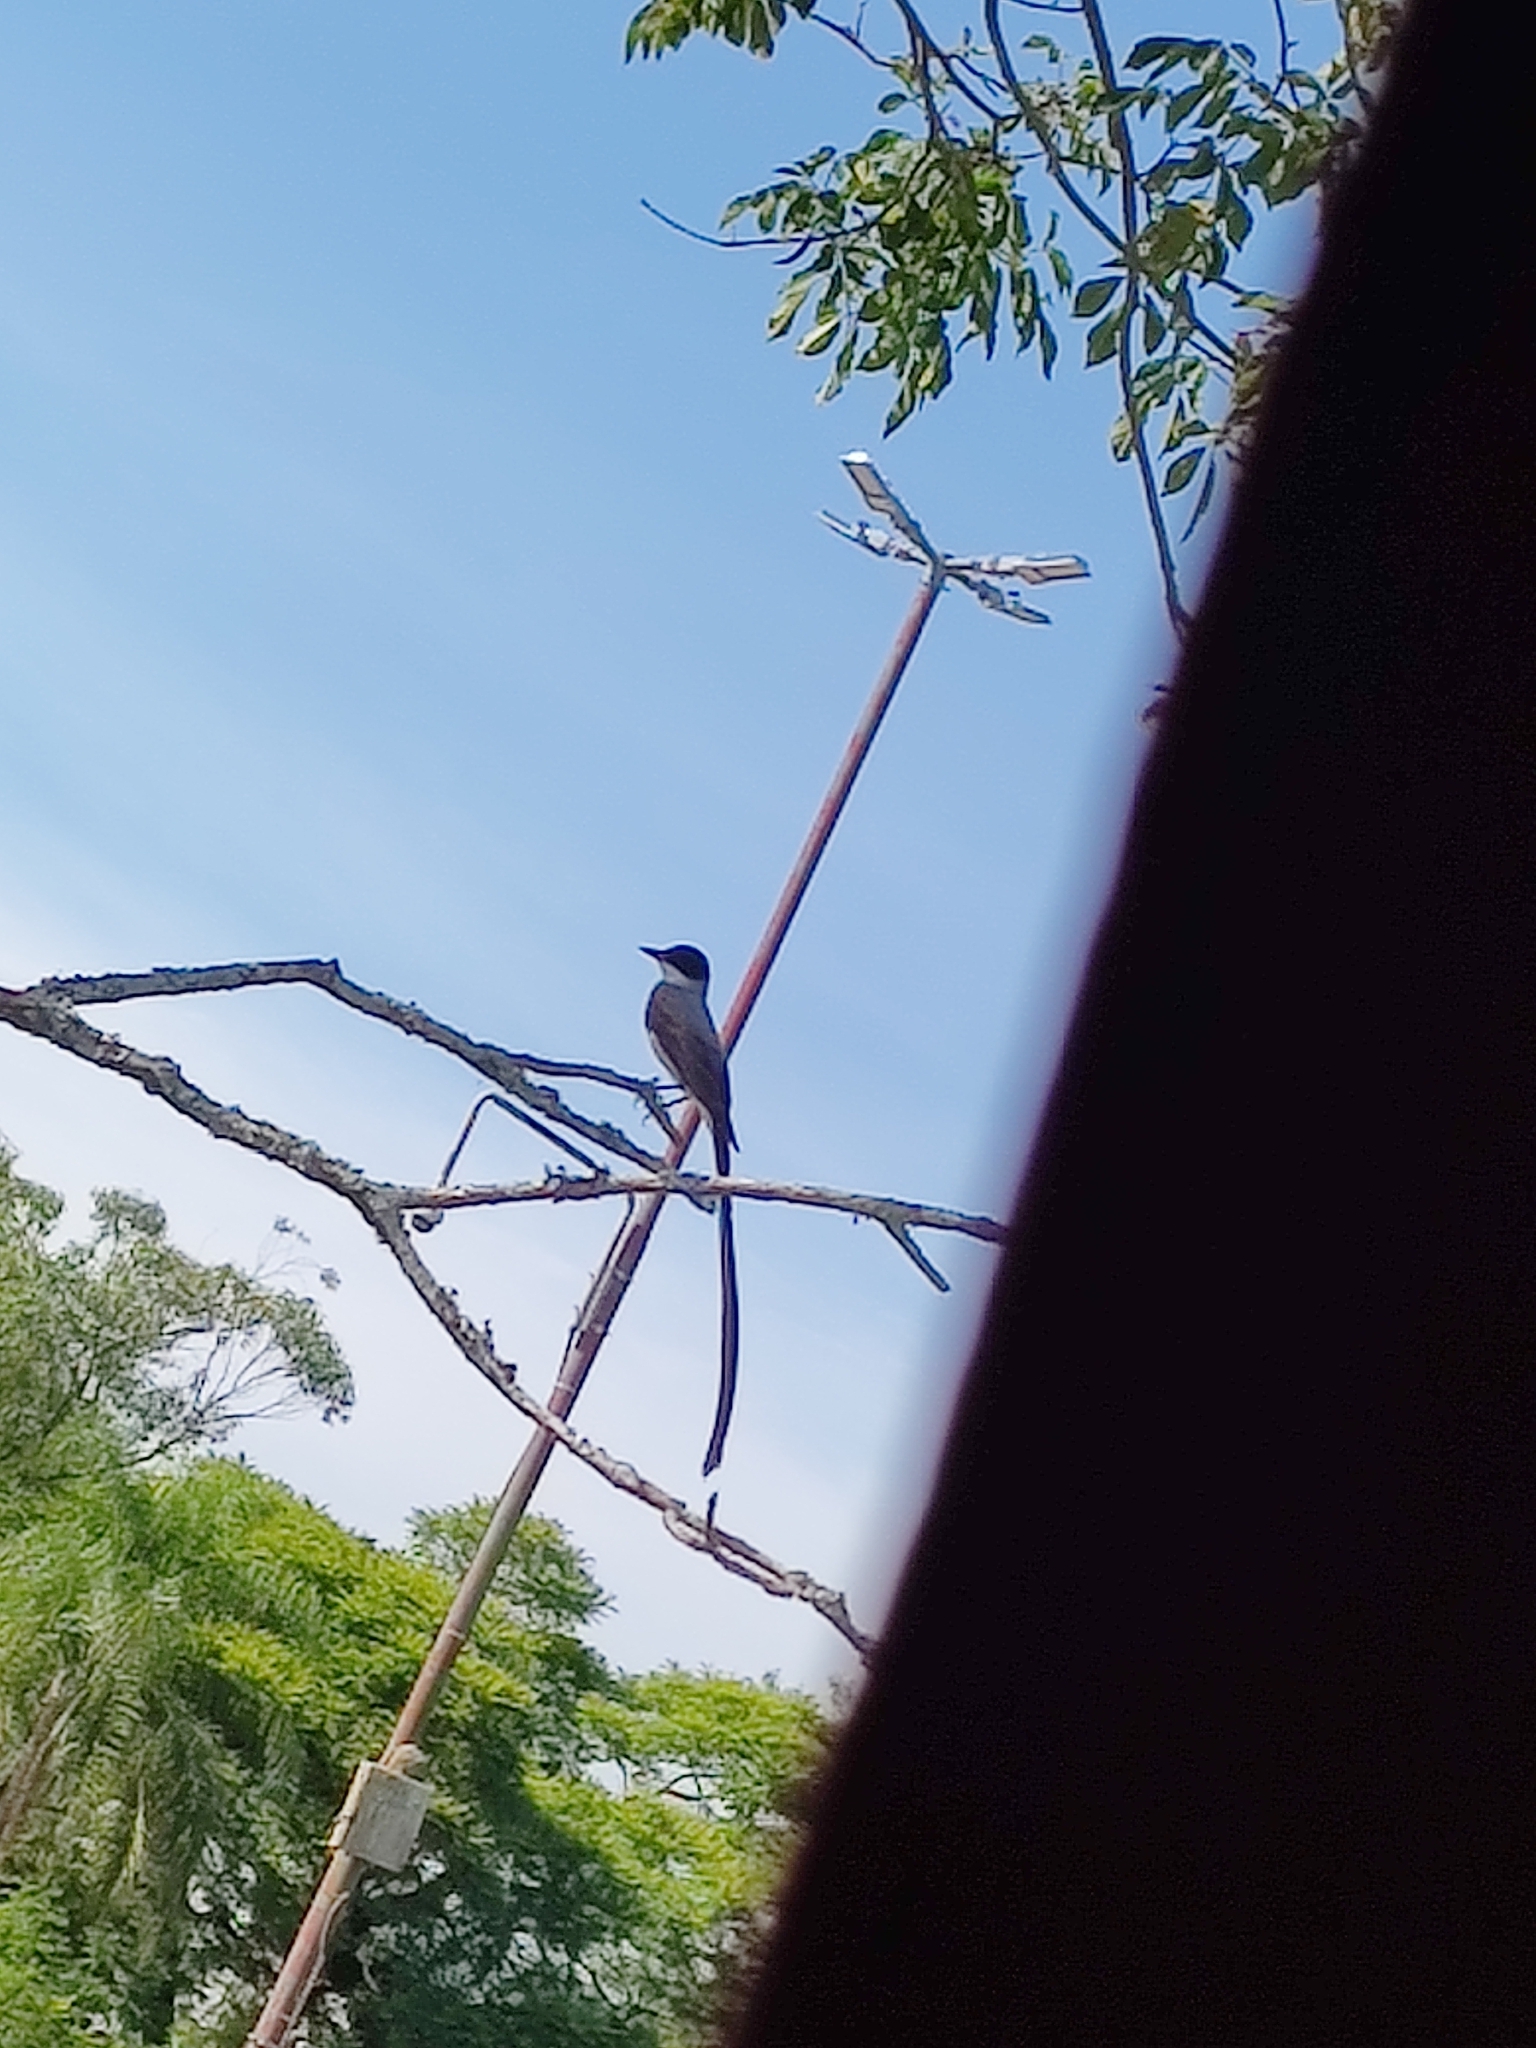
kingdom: Animalia
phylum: Chordata
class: Aves
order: Passeriformes
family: Tyrannidae
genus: Tyrannus
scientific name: Tyrannus savana
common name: Fork-tailed flycatcher
